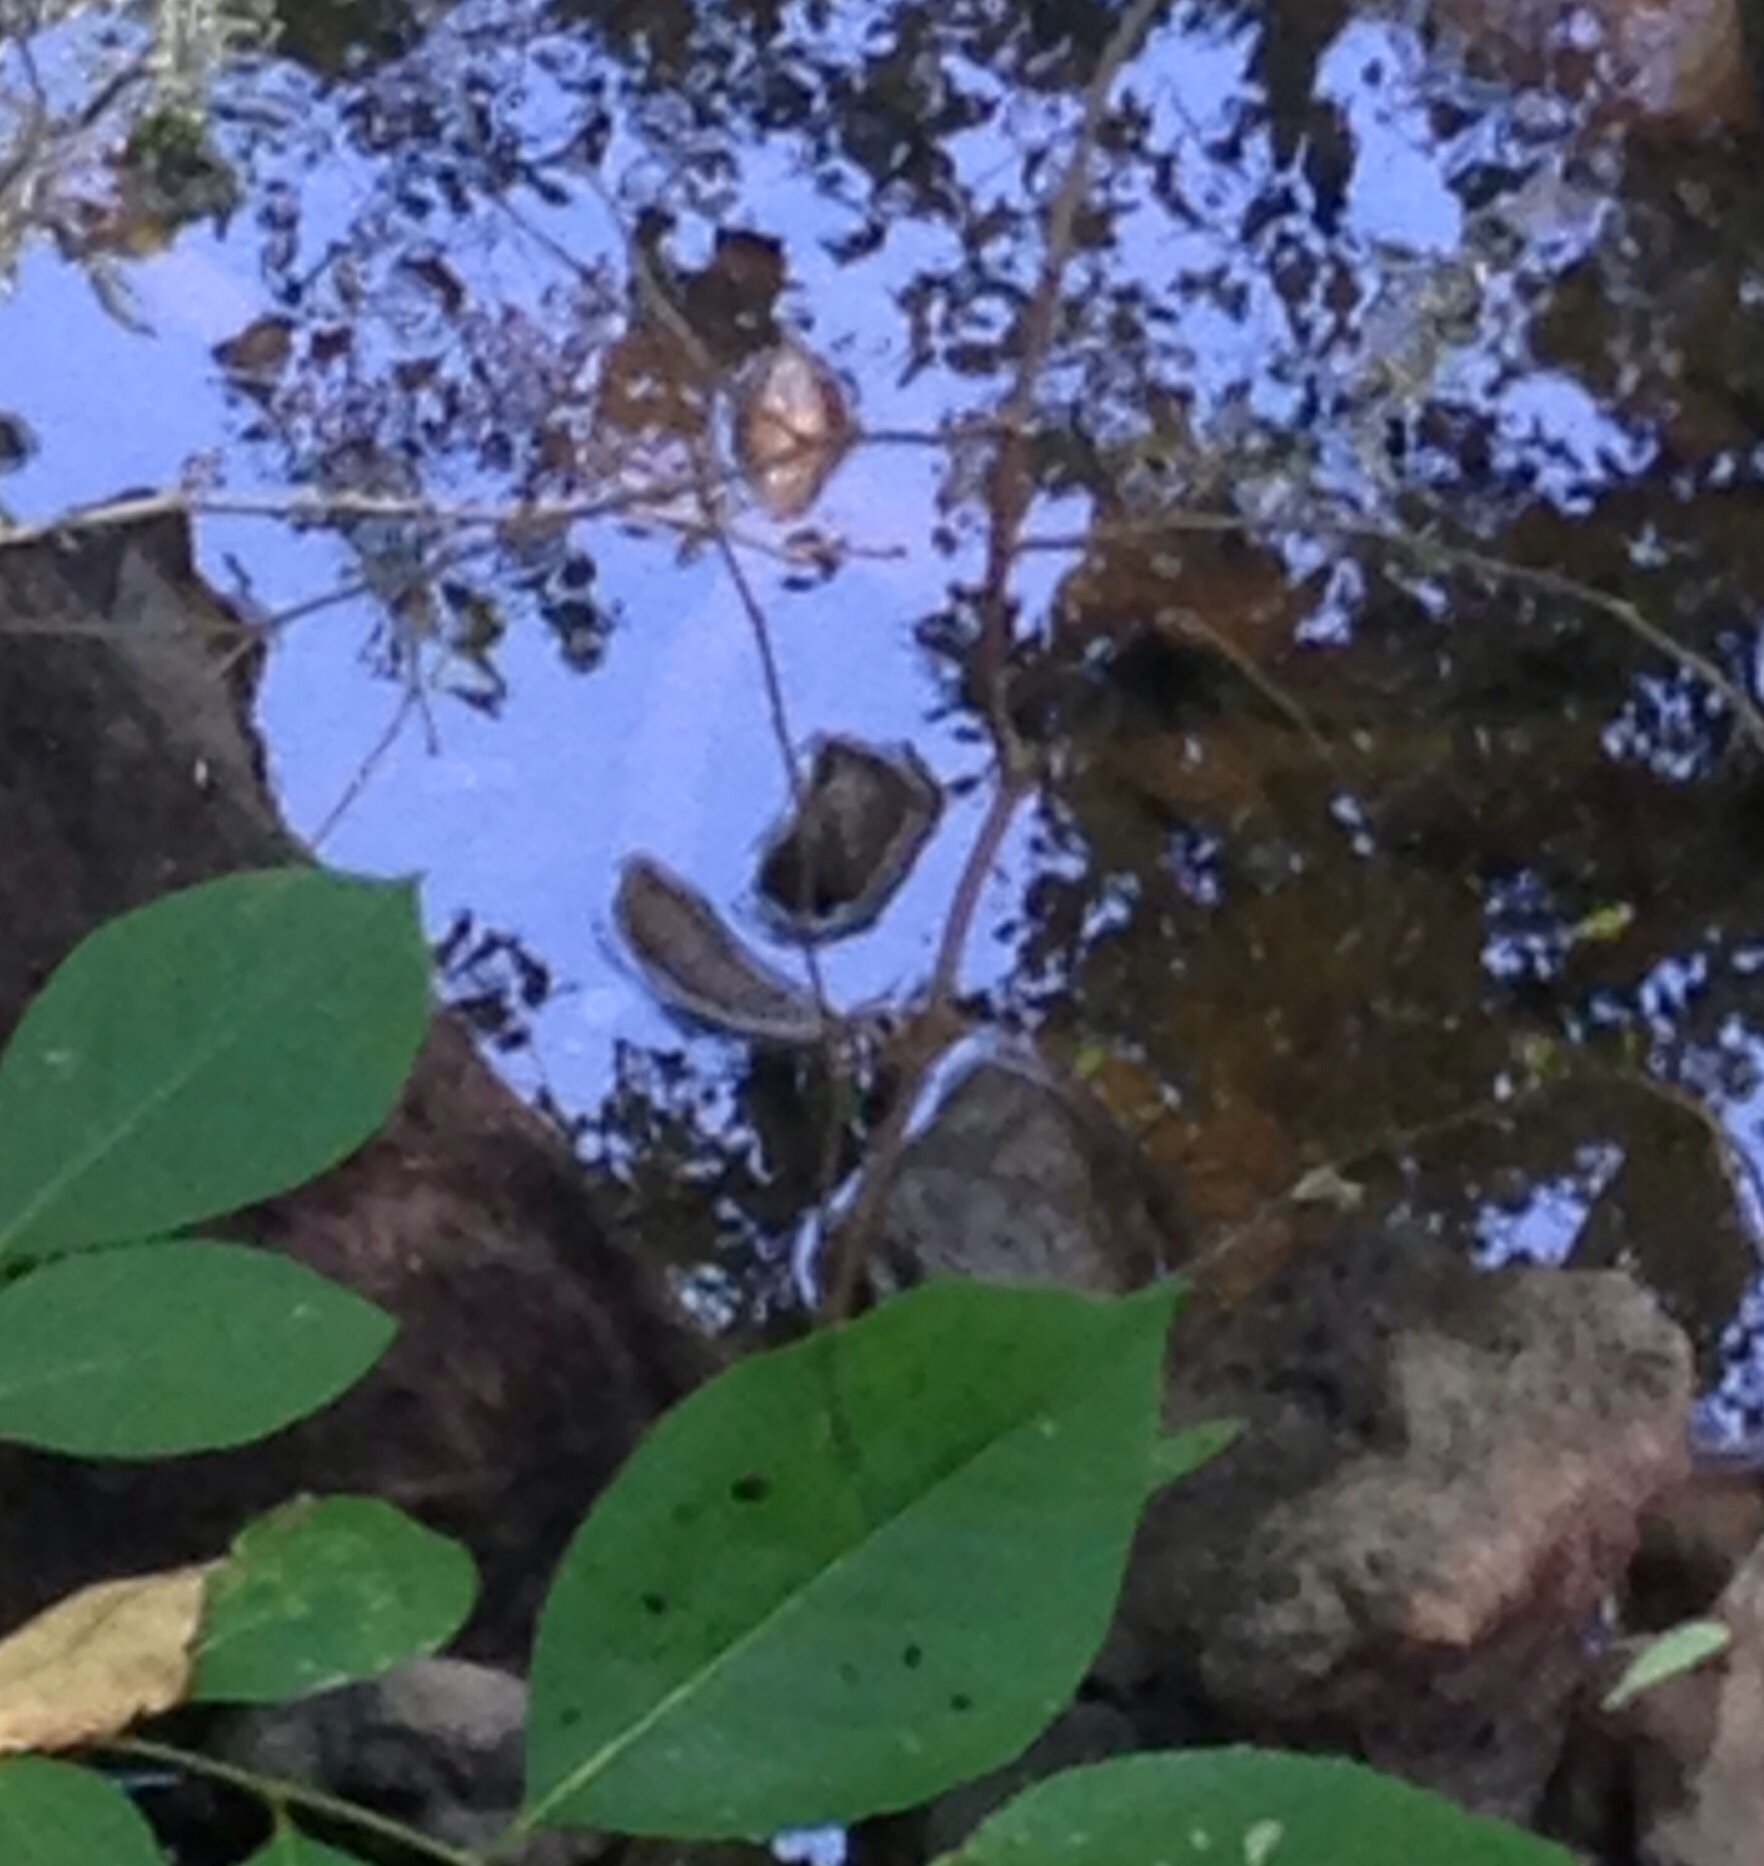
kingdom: Animalia
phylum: Chordata
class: Squamata
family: Colubridae
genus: Nerodia
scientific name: Nerodia
